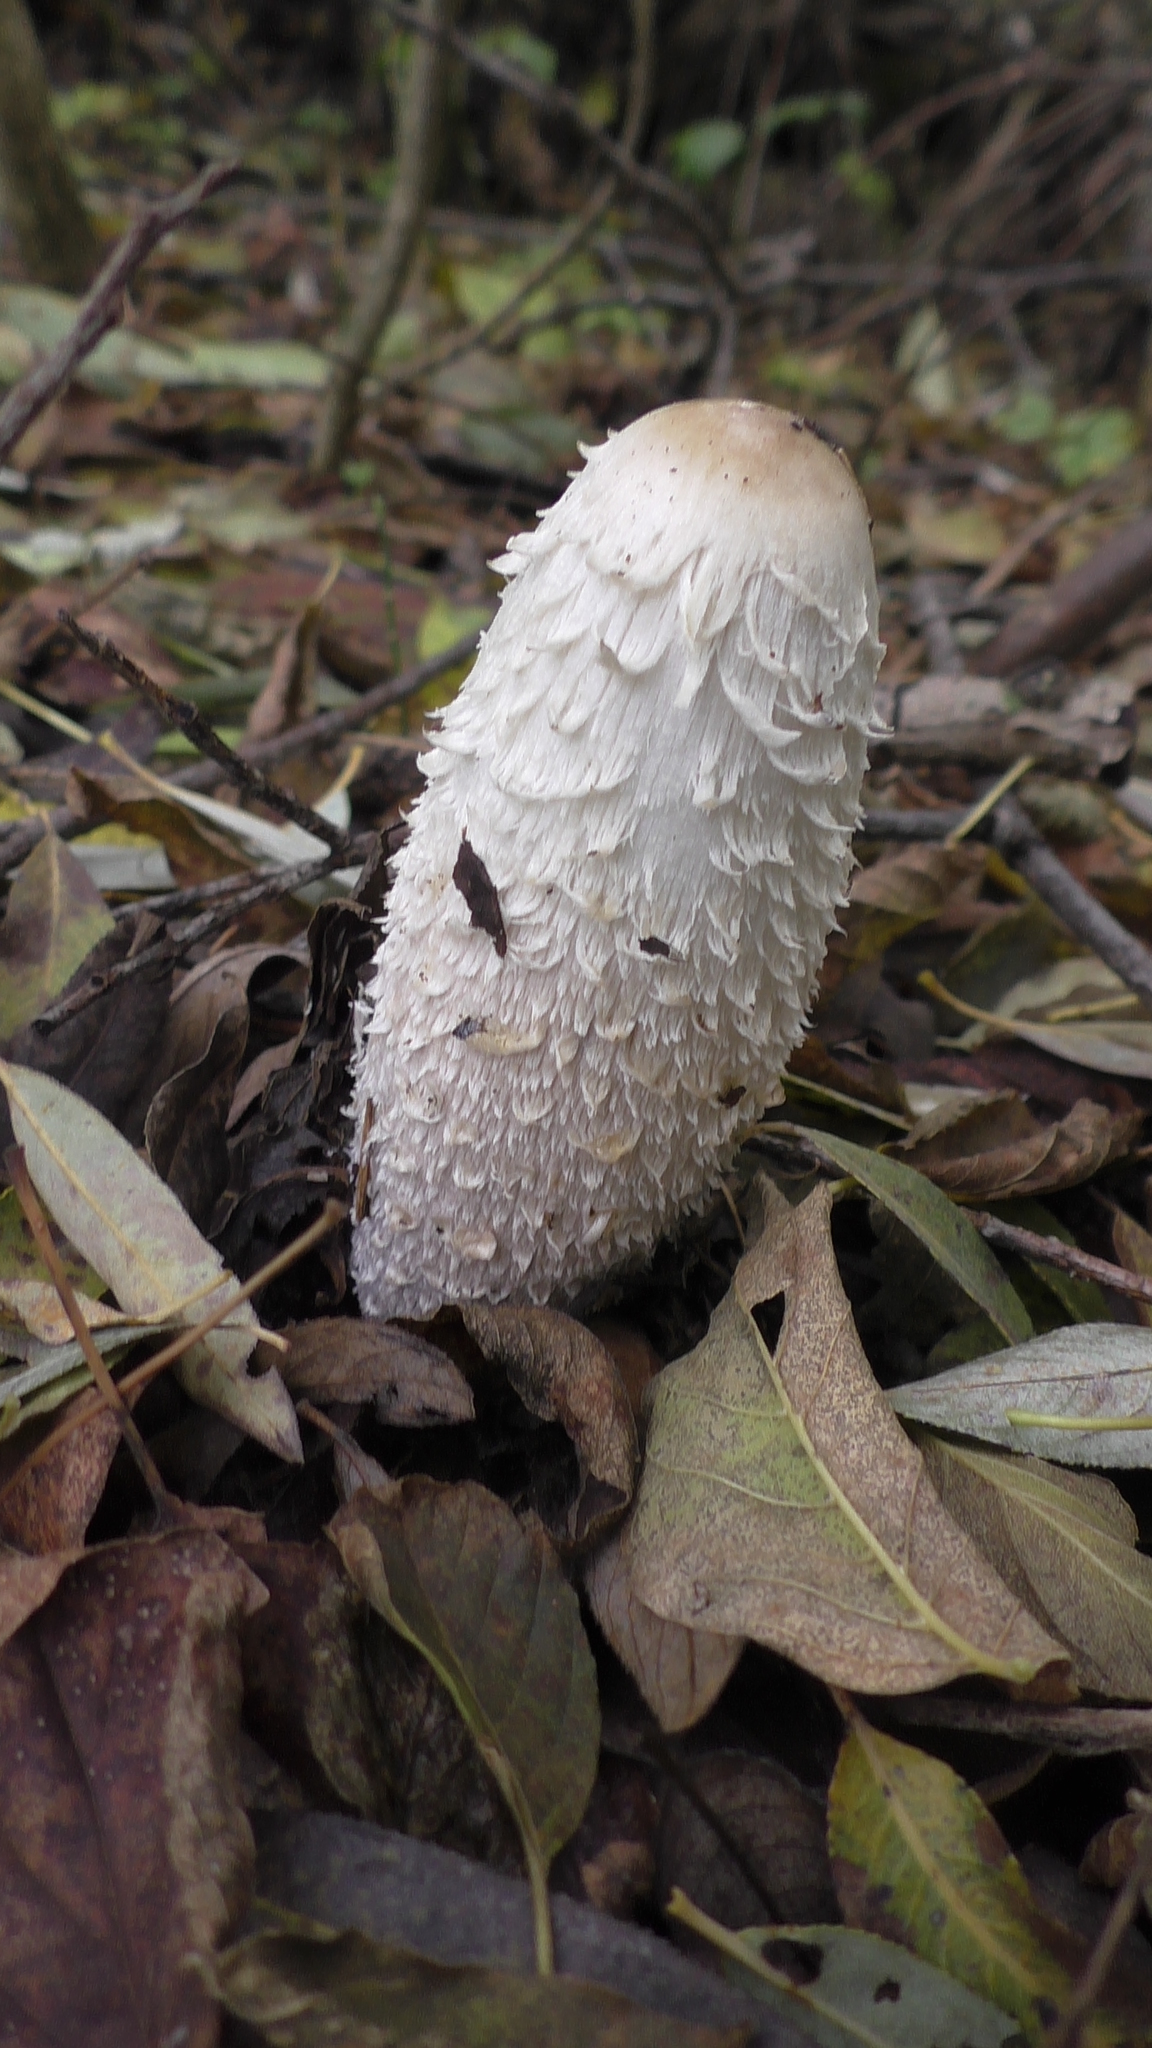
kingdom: Fungi
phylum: Basidiomycota
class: Agaricomycetes
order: Agaricales
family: Agaricaceae
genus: Coprinus
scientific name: Coprinus comatus
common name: Lawyer's wig
